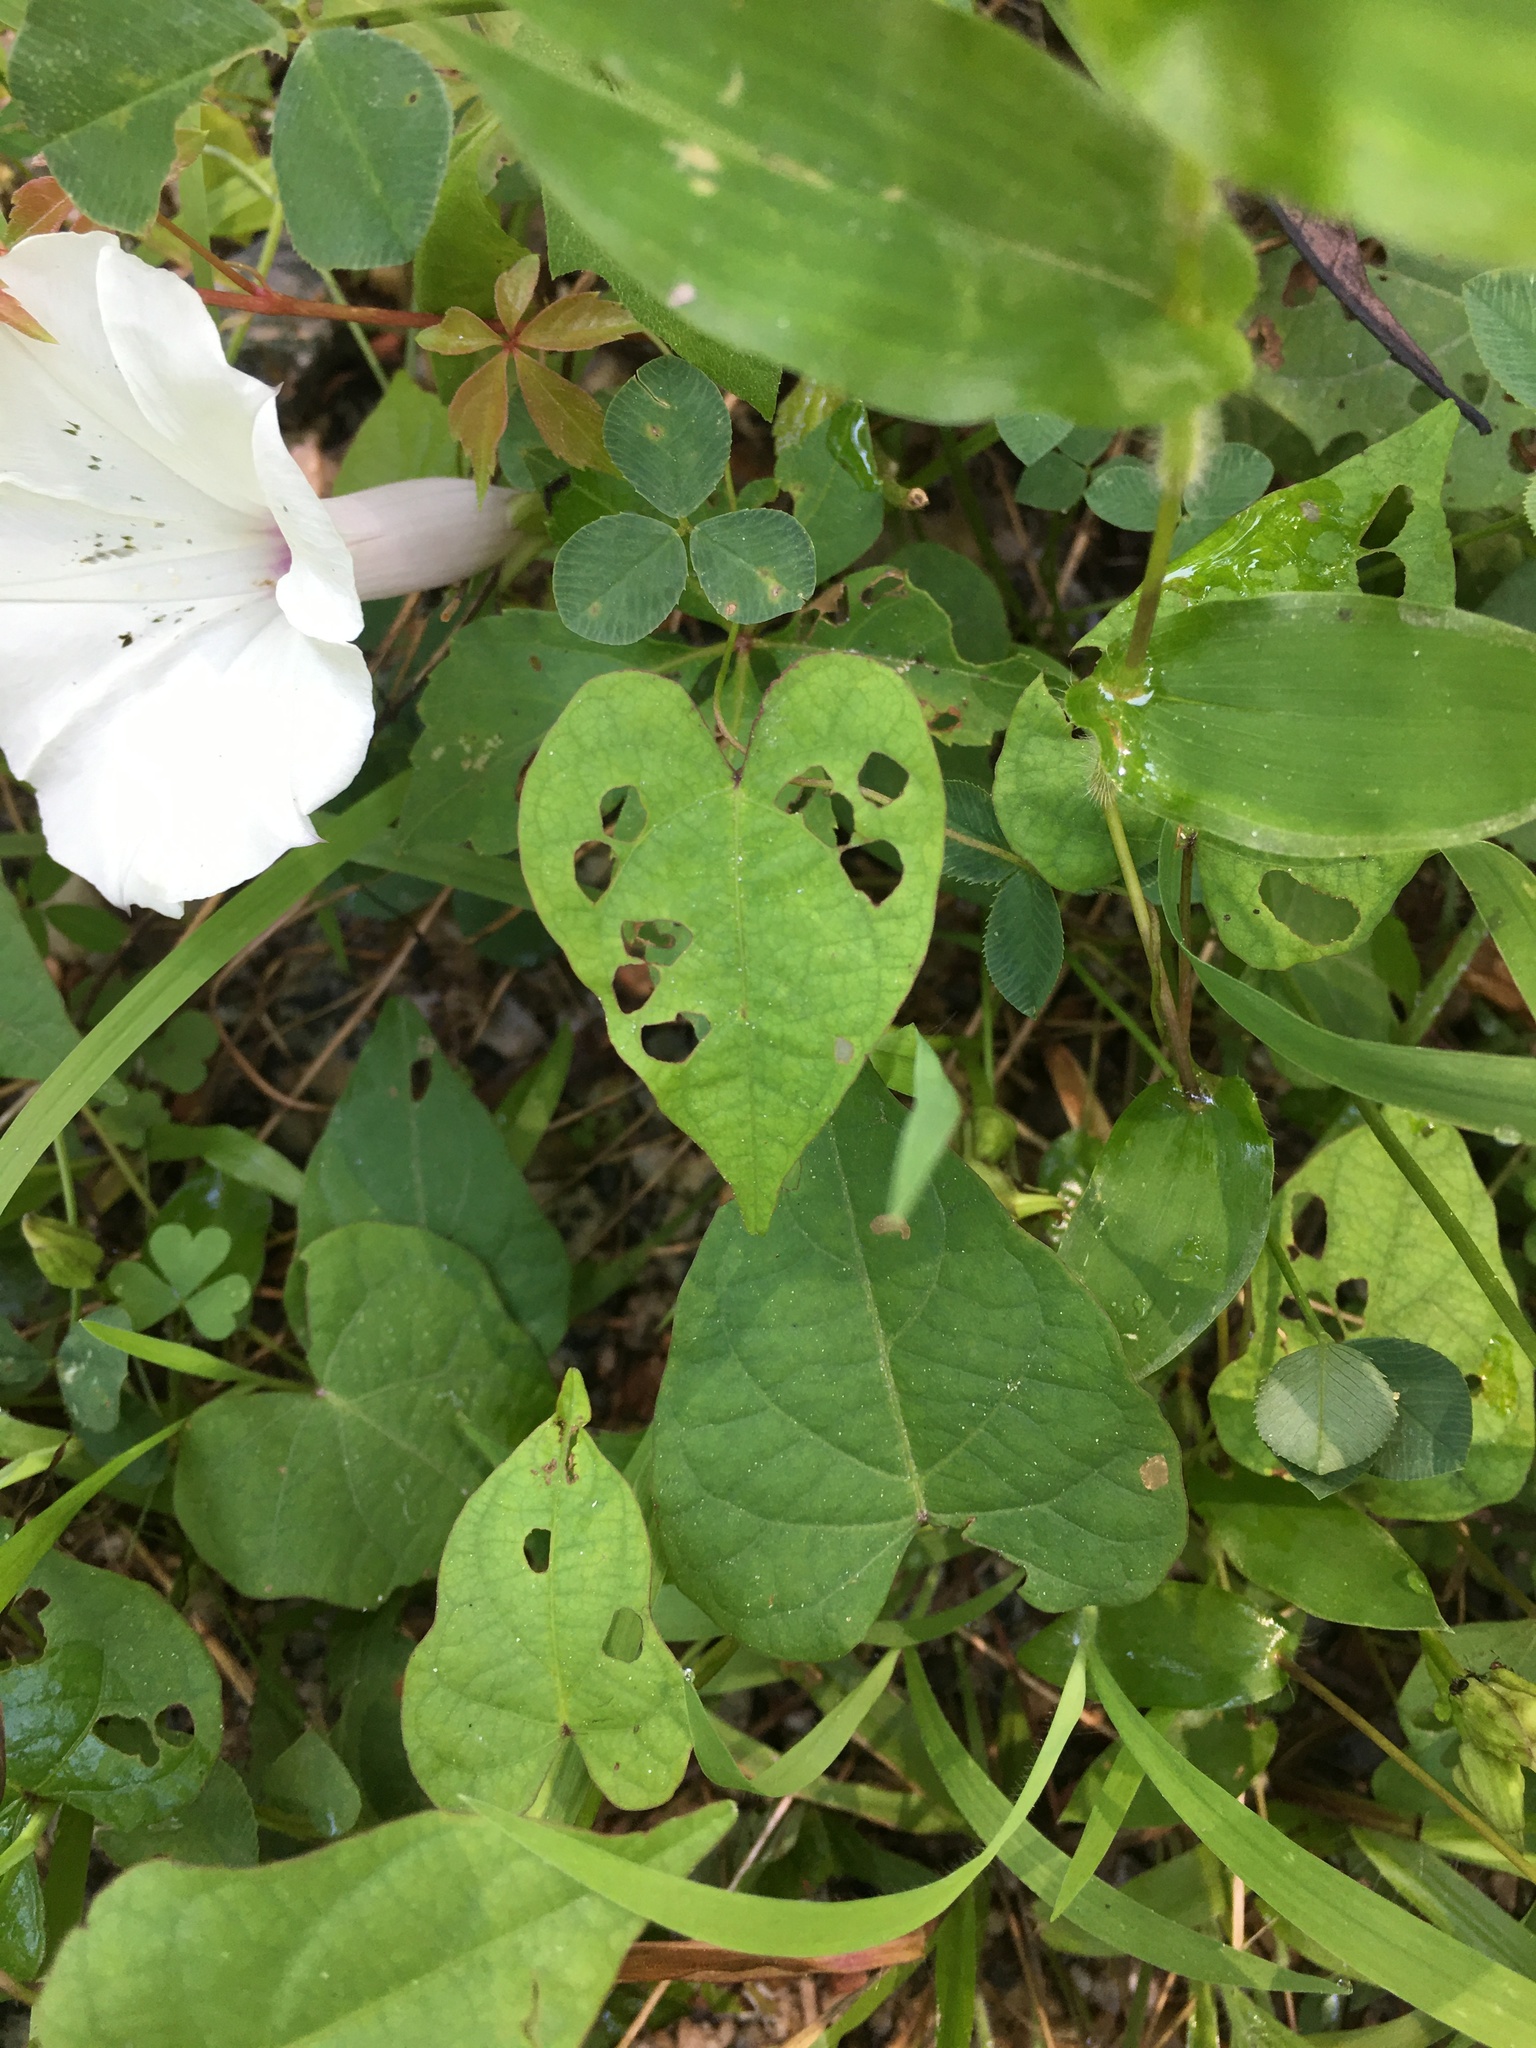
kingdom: Plantae
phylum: Tracheophyta
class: Magnoliopsida
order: Solanales
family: Convolvulaceae
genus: Ipomoea
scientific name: Ipomoea pandurata
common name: Man-of-the-earth
